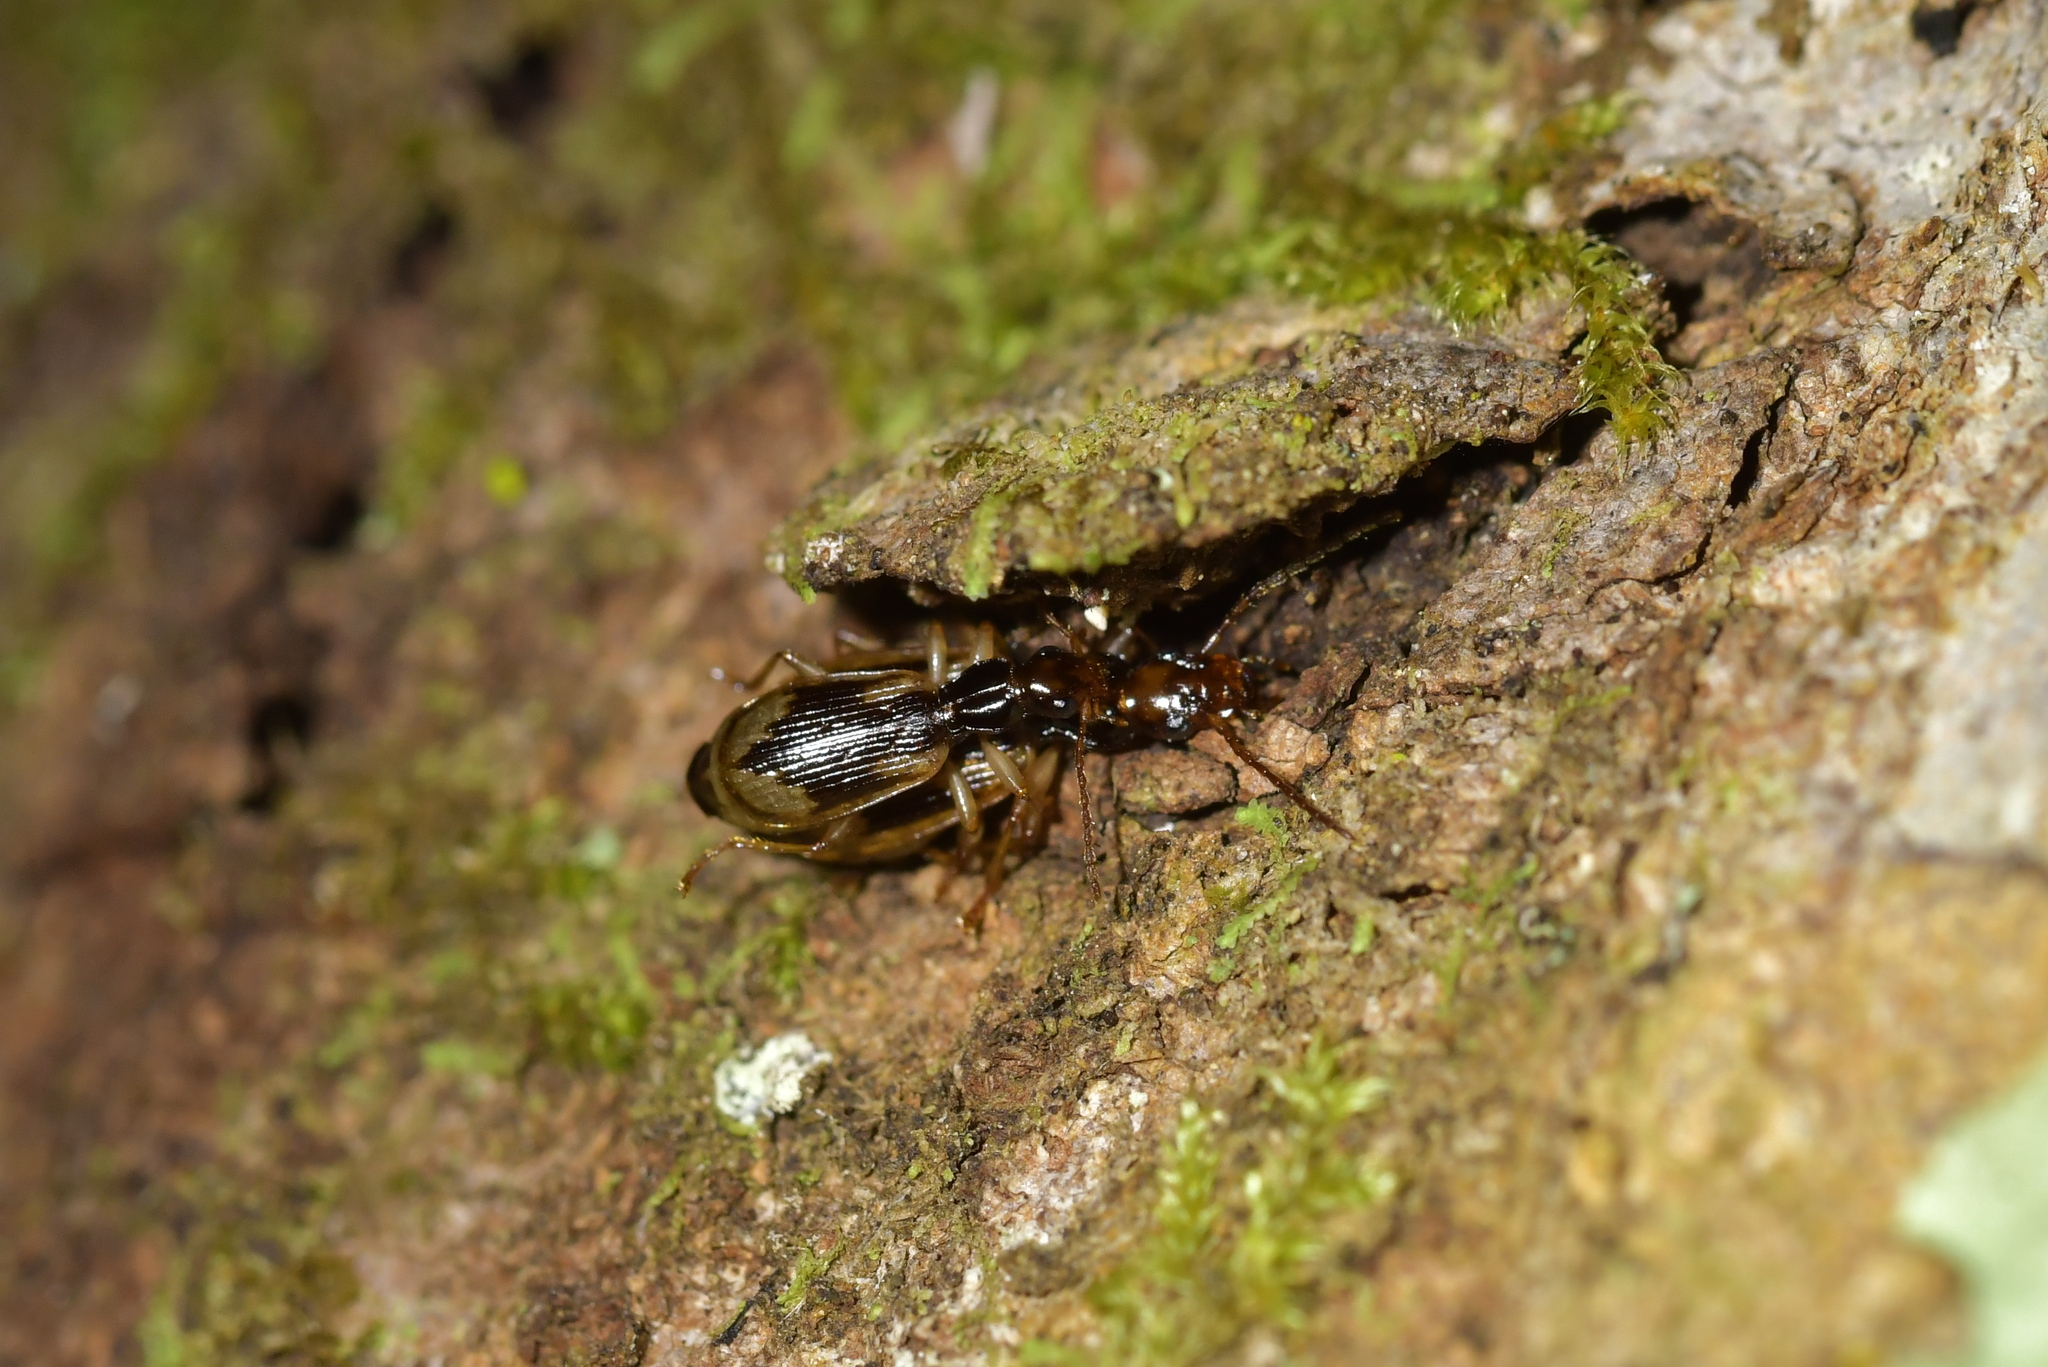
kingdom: Animalia
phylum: Arthropoda
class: Insecta
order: Coleoptera
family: Carabidae
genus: Demetrida
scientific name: Demetrida nasuta
